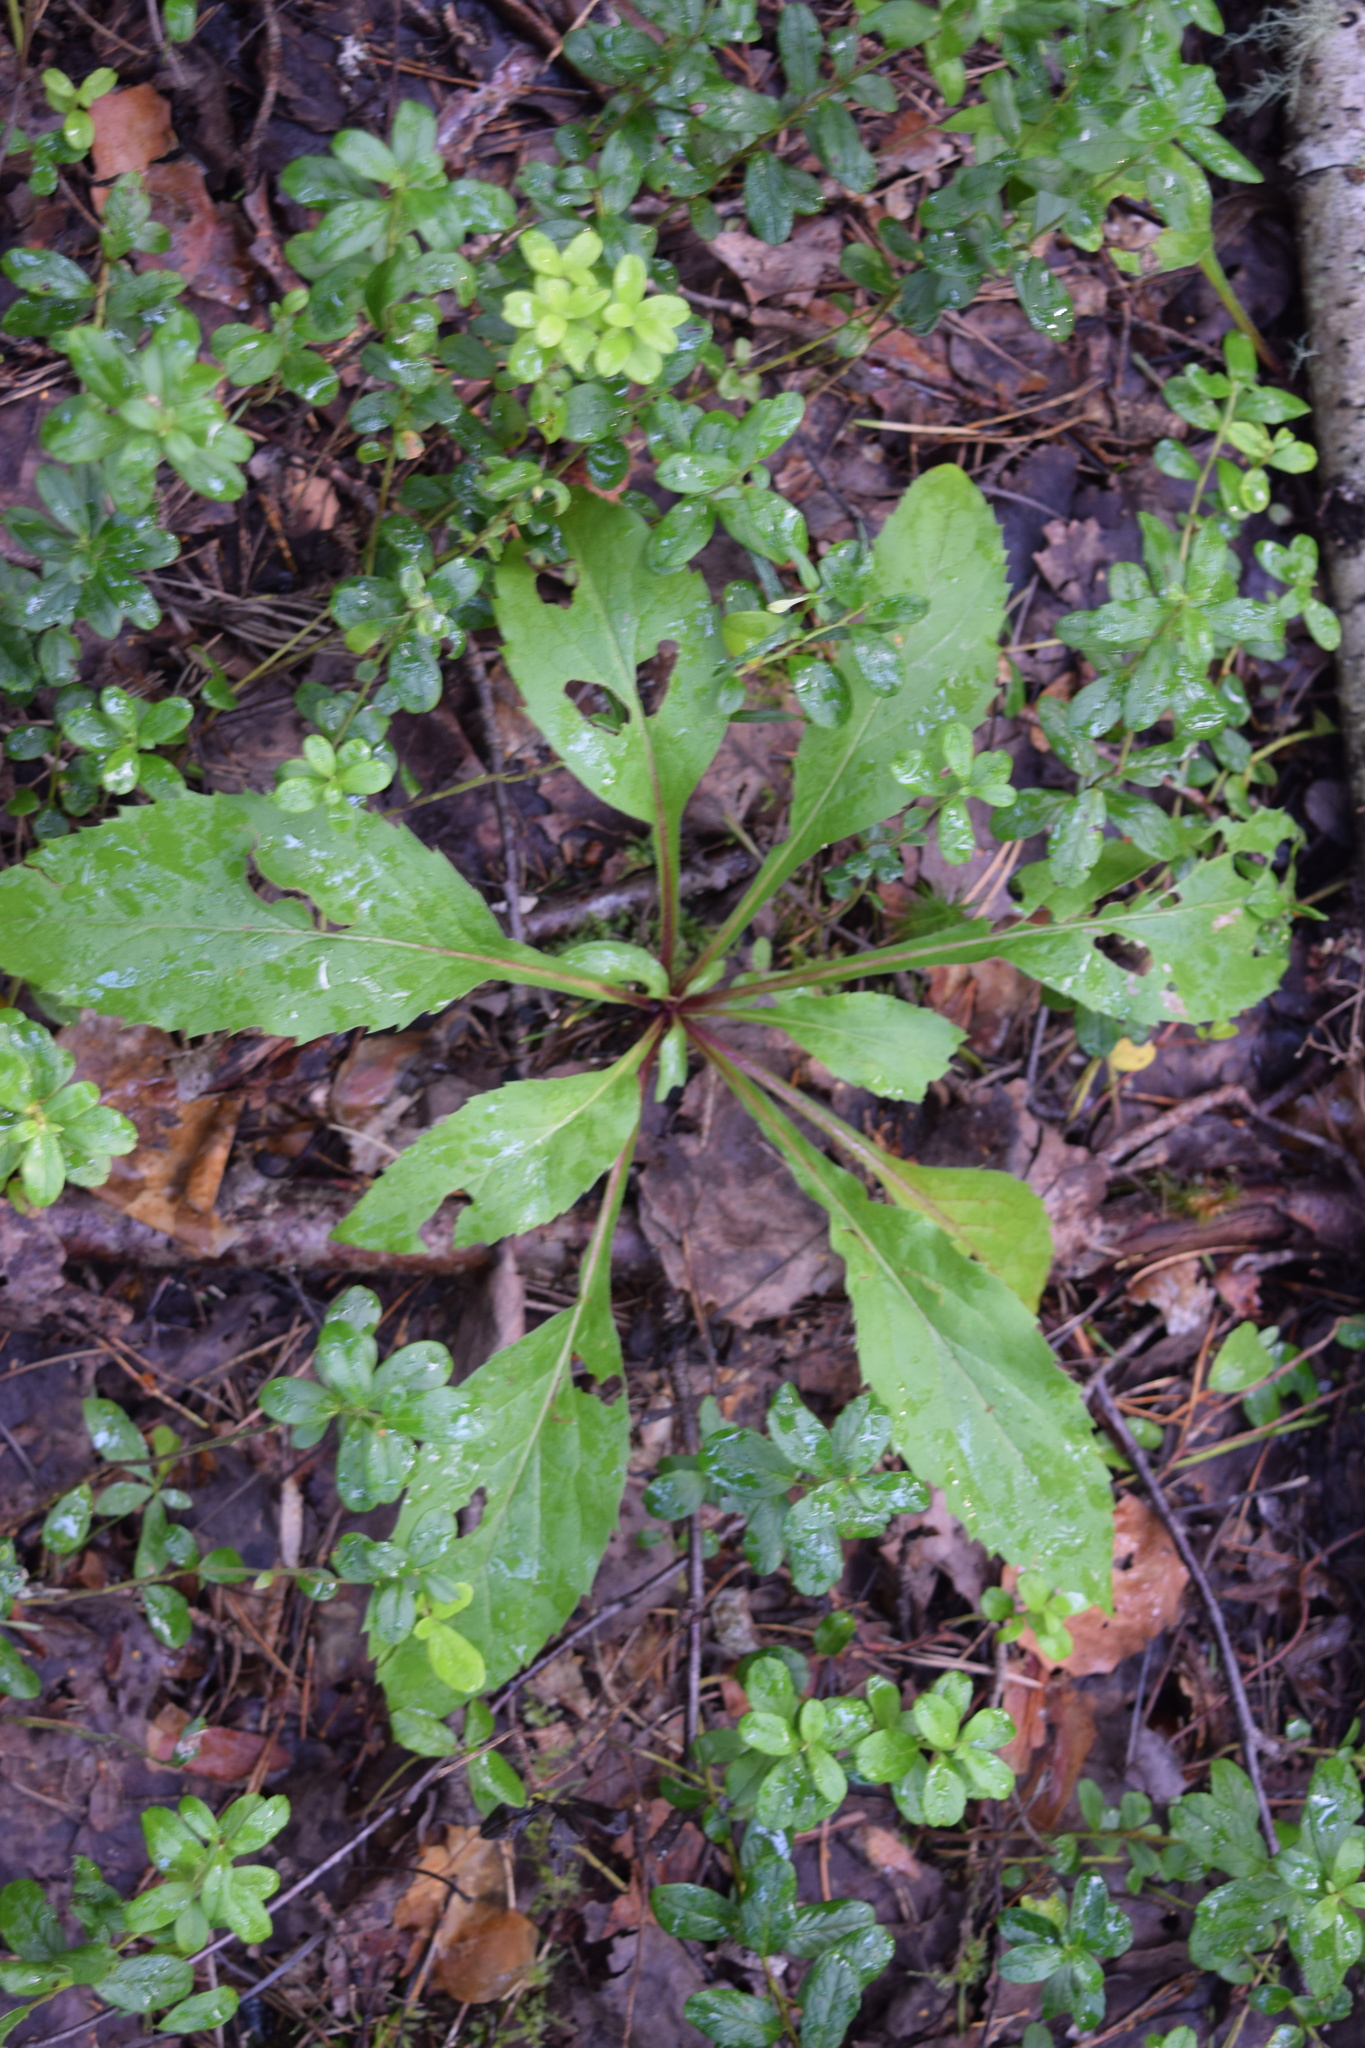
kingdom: Plantae
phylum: Tracheophyta
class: Magnoliopsida
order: Asterales
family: Asteraceae
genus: Solidago
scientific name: Solidago virgaurea
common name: Goldenrod
